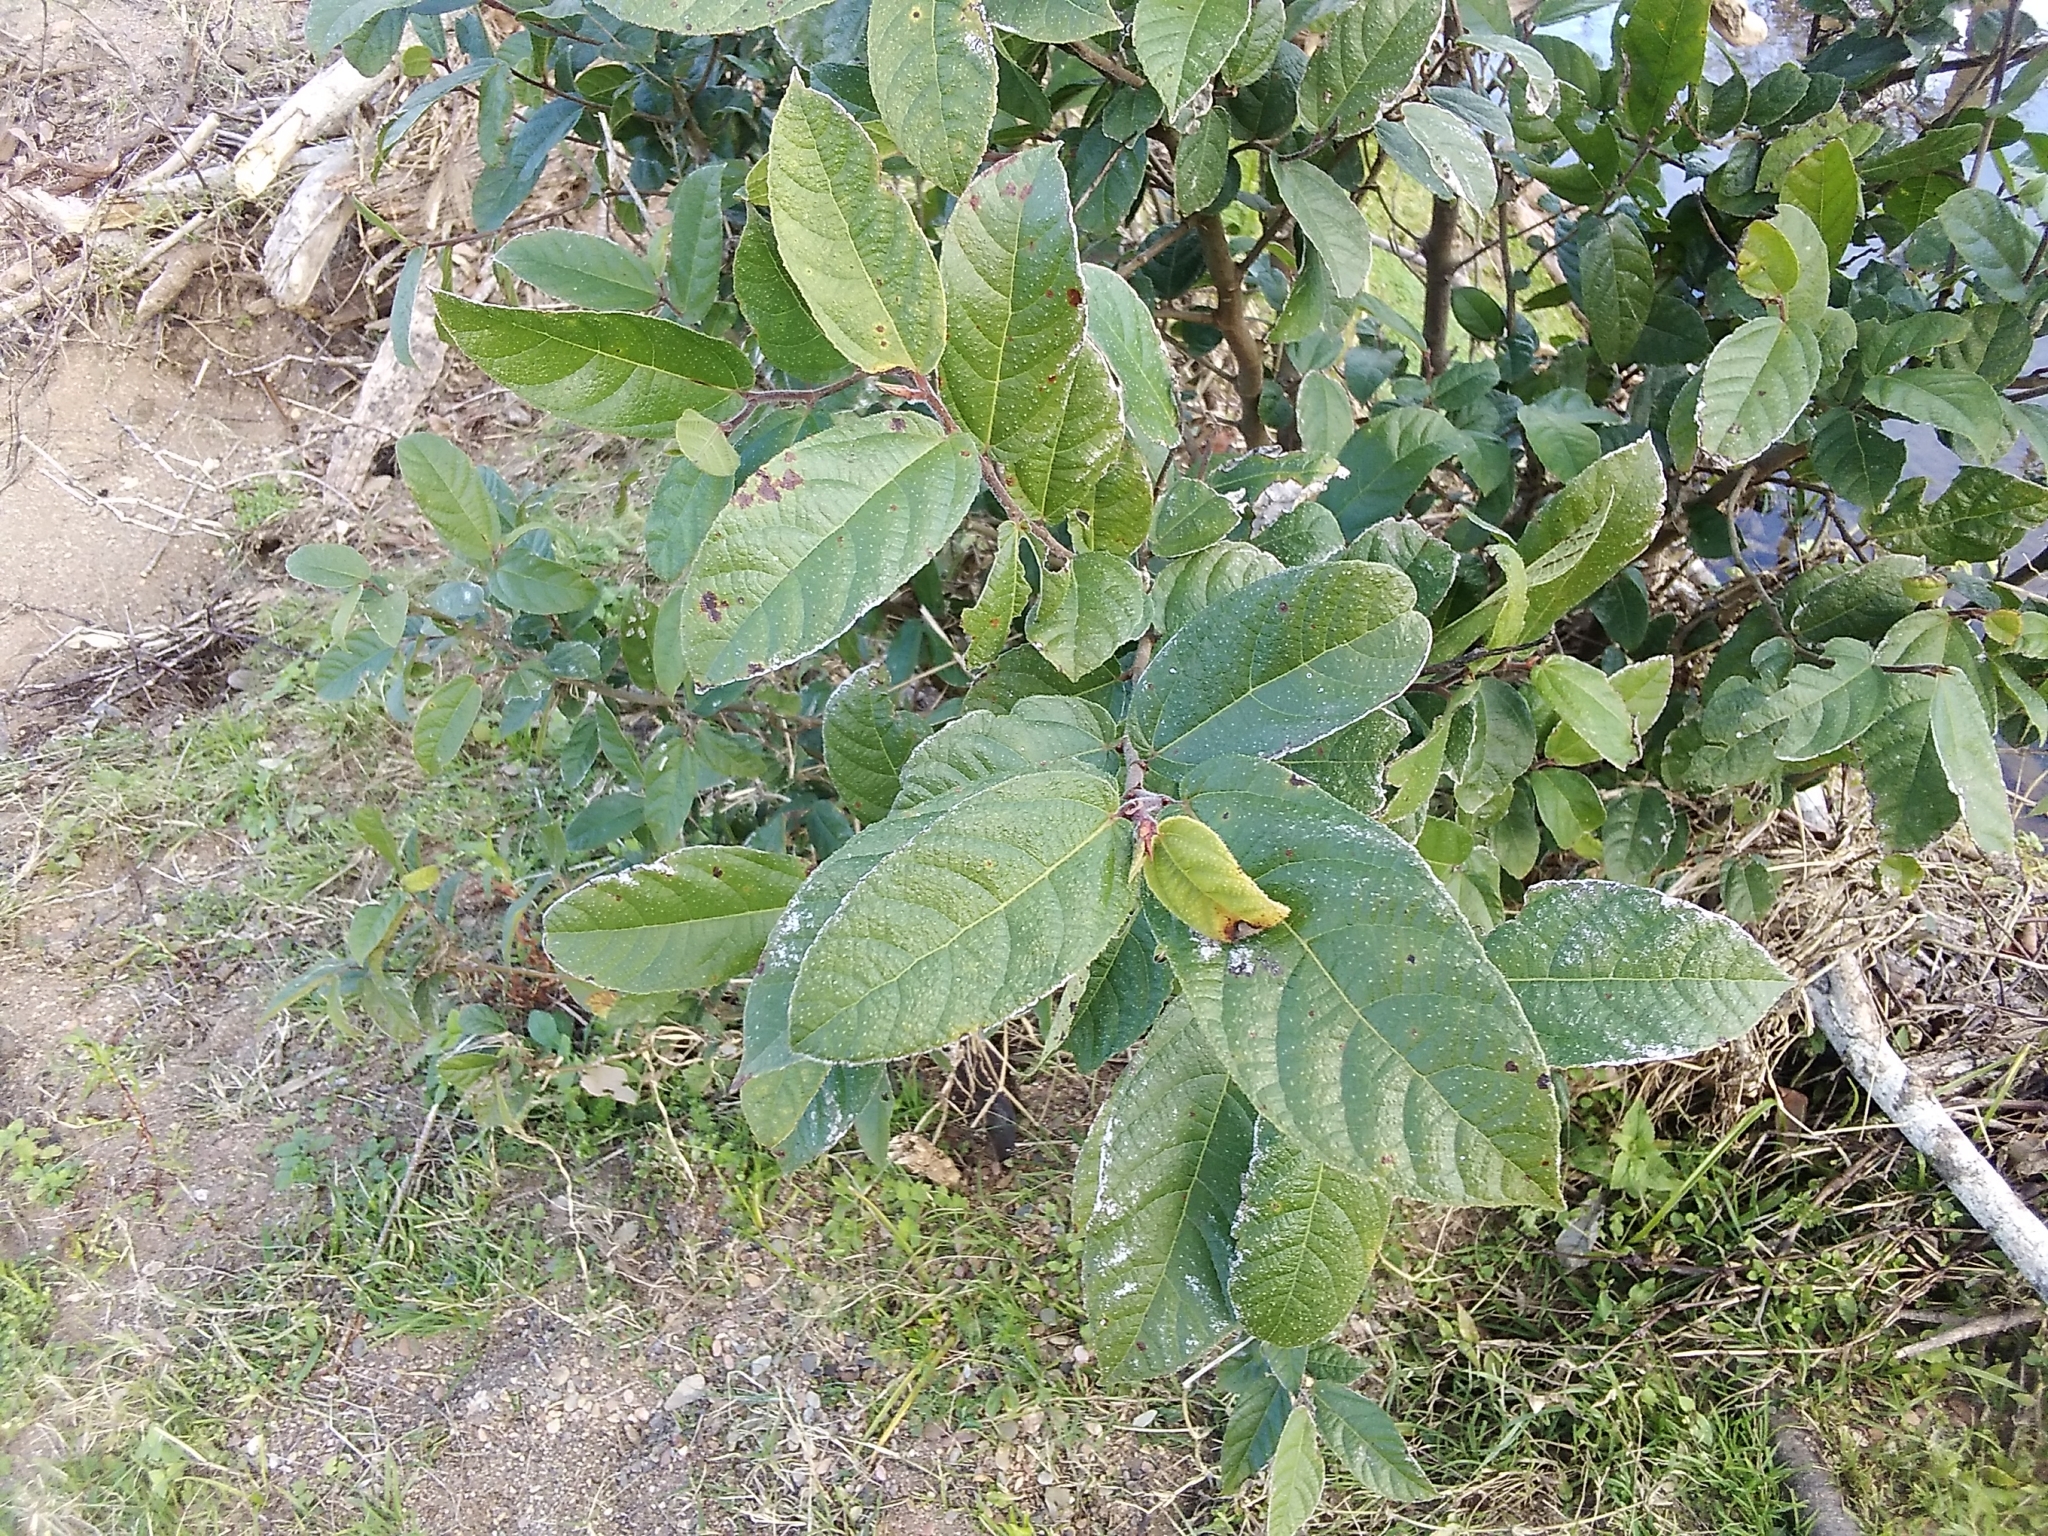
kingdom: Plantae
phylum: Tracheophyta
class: Magnoliopsida
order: Rosales
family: Moraceae
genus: Ficus
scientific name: Ficus coronata
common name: Creek sandpaper fig
